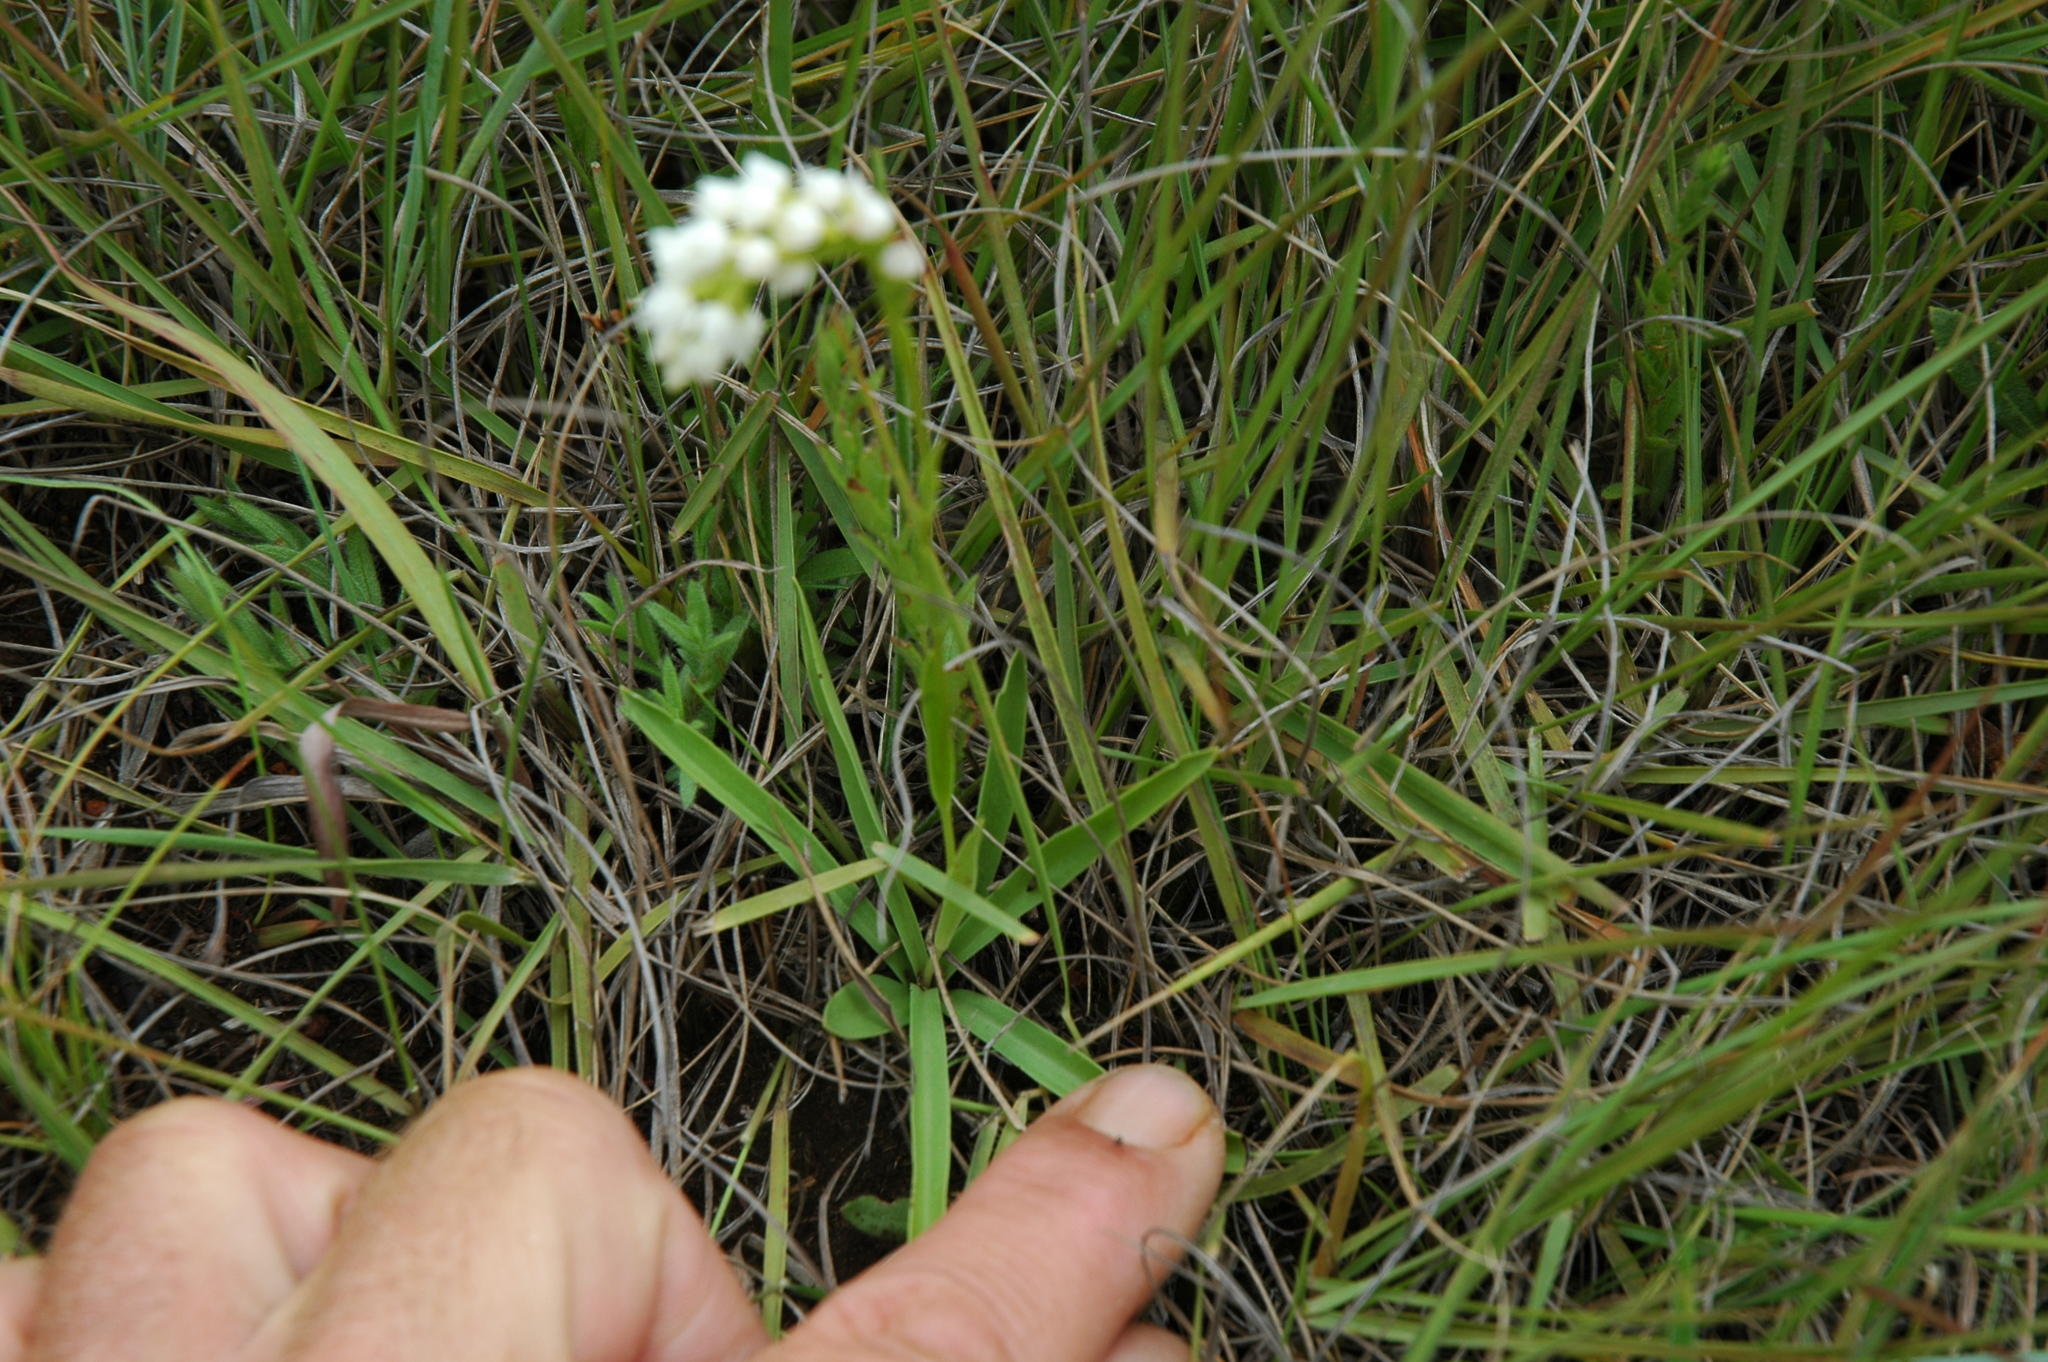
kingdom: Plantae
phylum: Tracheophyta
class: Liliopsida
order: Asparagales
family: Orchidaceae
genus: Schizochilus
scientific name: Schizochilus cecilii
